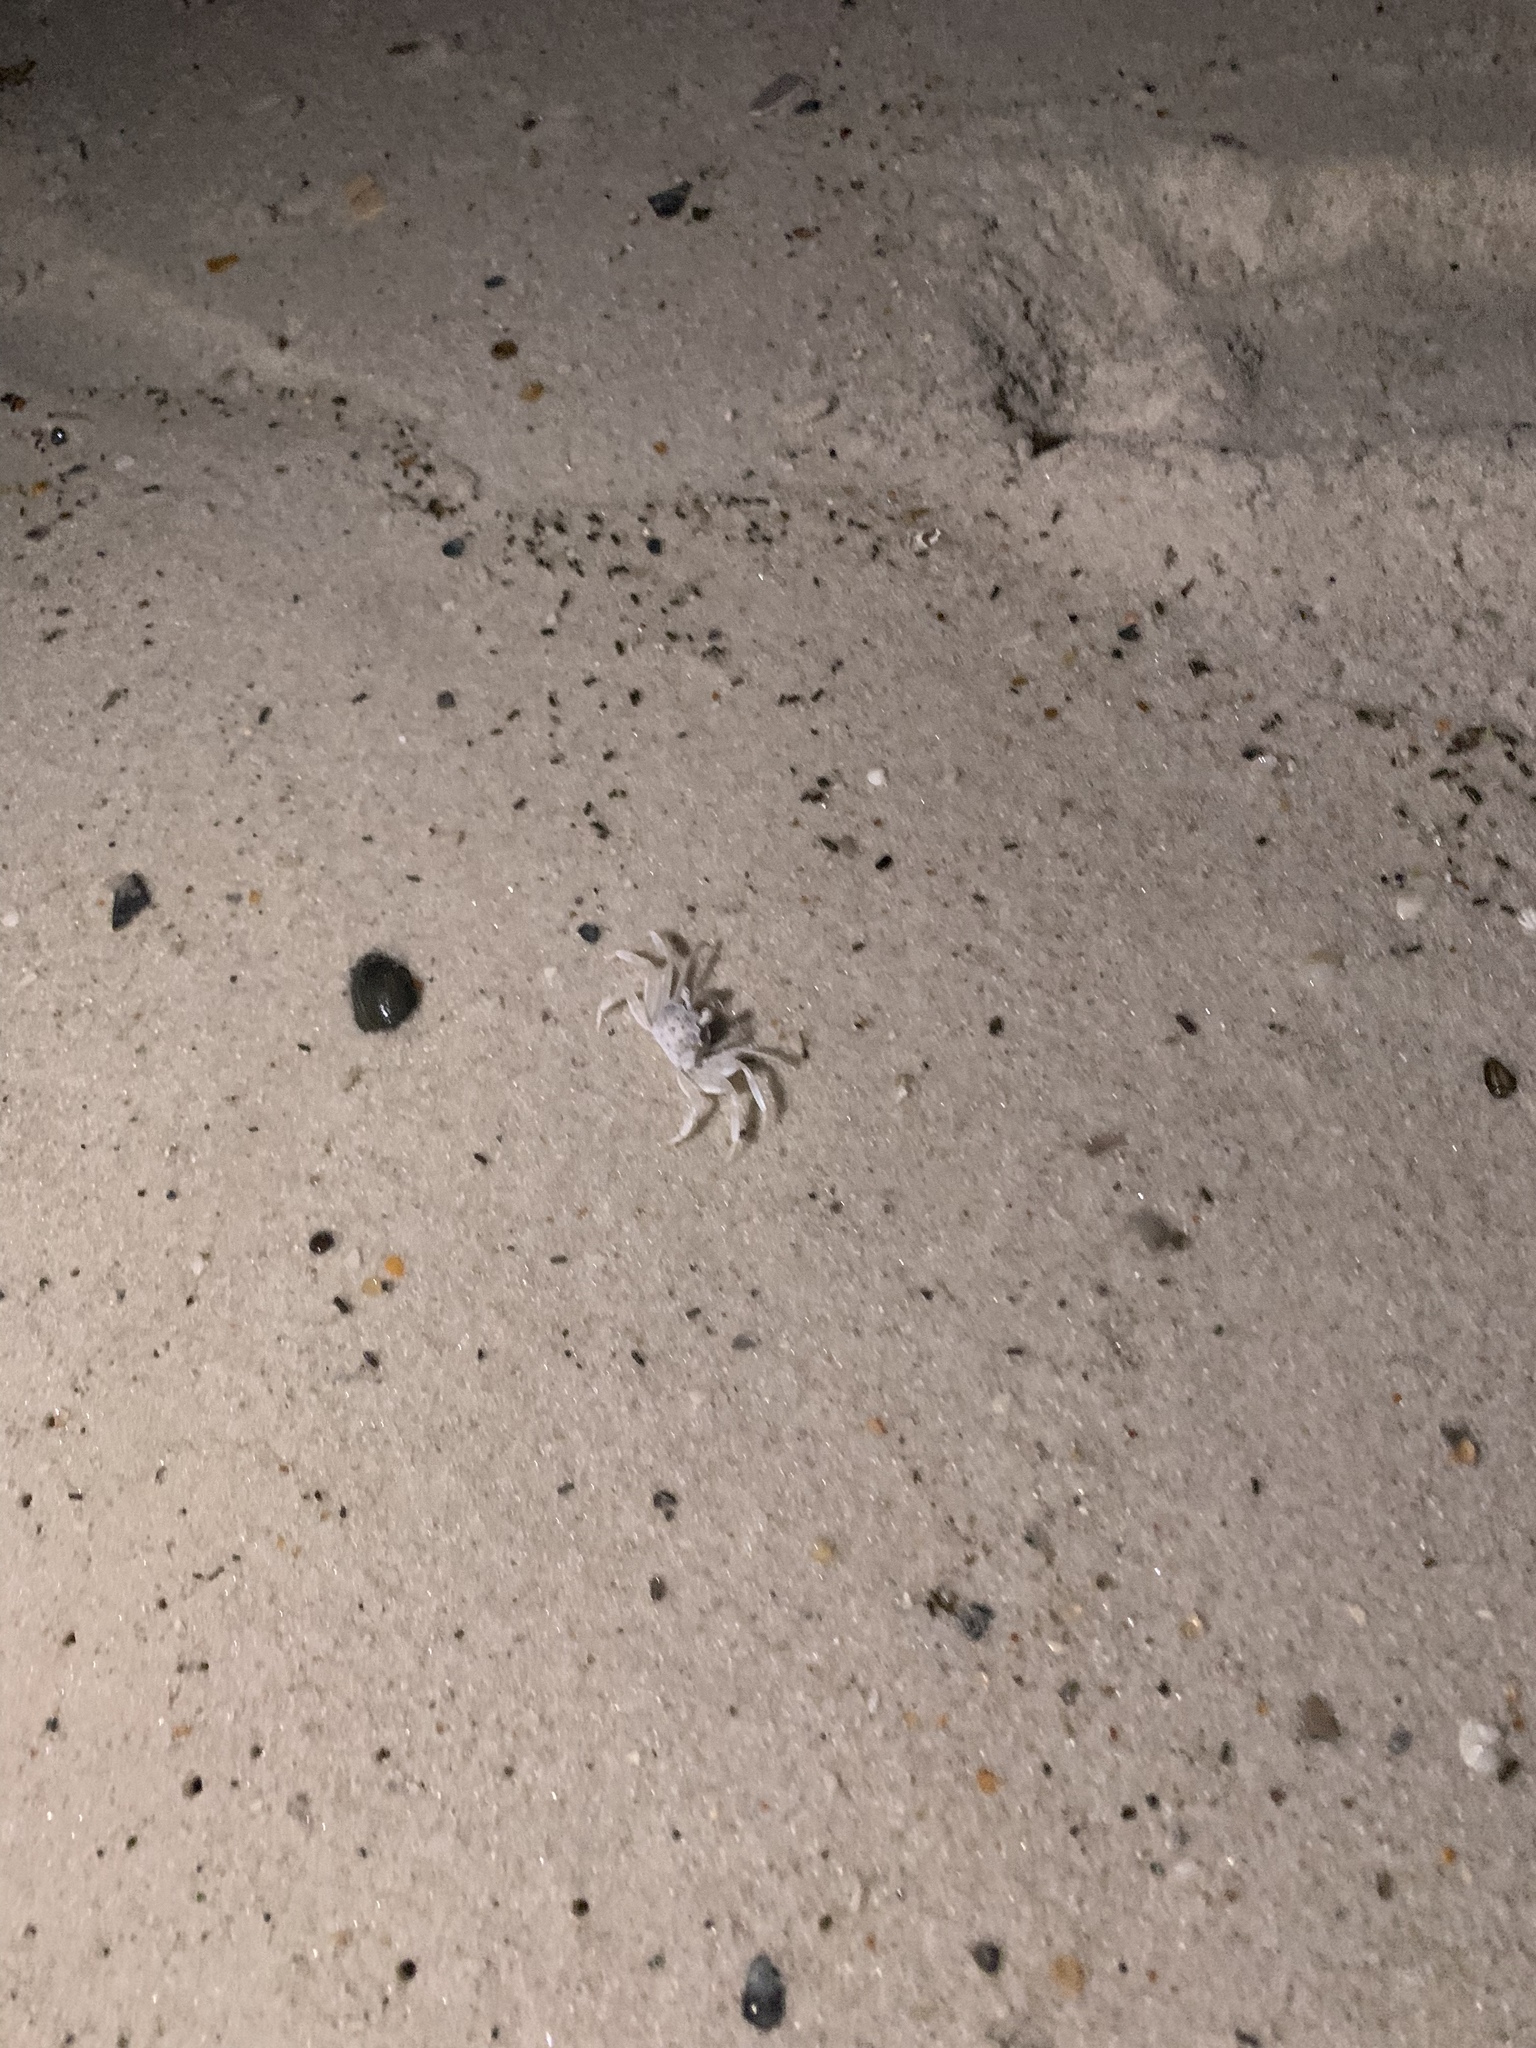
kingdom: Animalia
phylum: Arthropoda
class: Malacostraca
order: Decapoda
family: Ocypodidae
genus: Ocypode
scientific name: Ocypode quadrata
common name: Ghost crab
